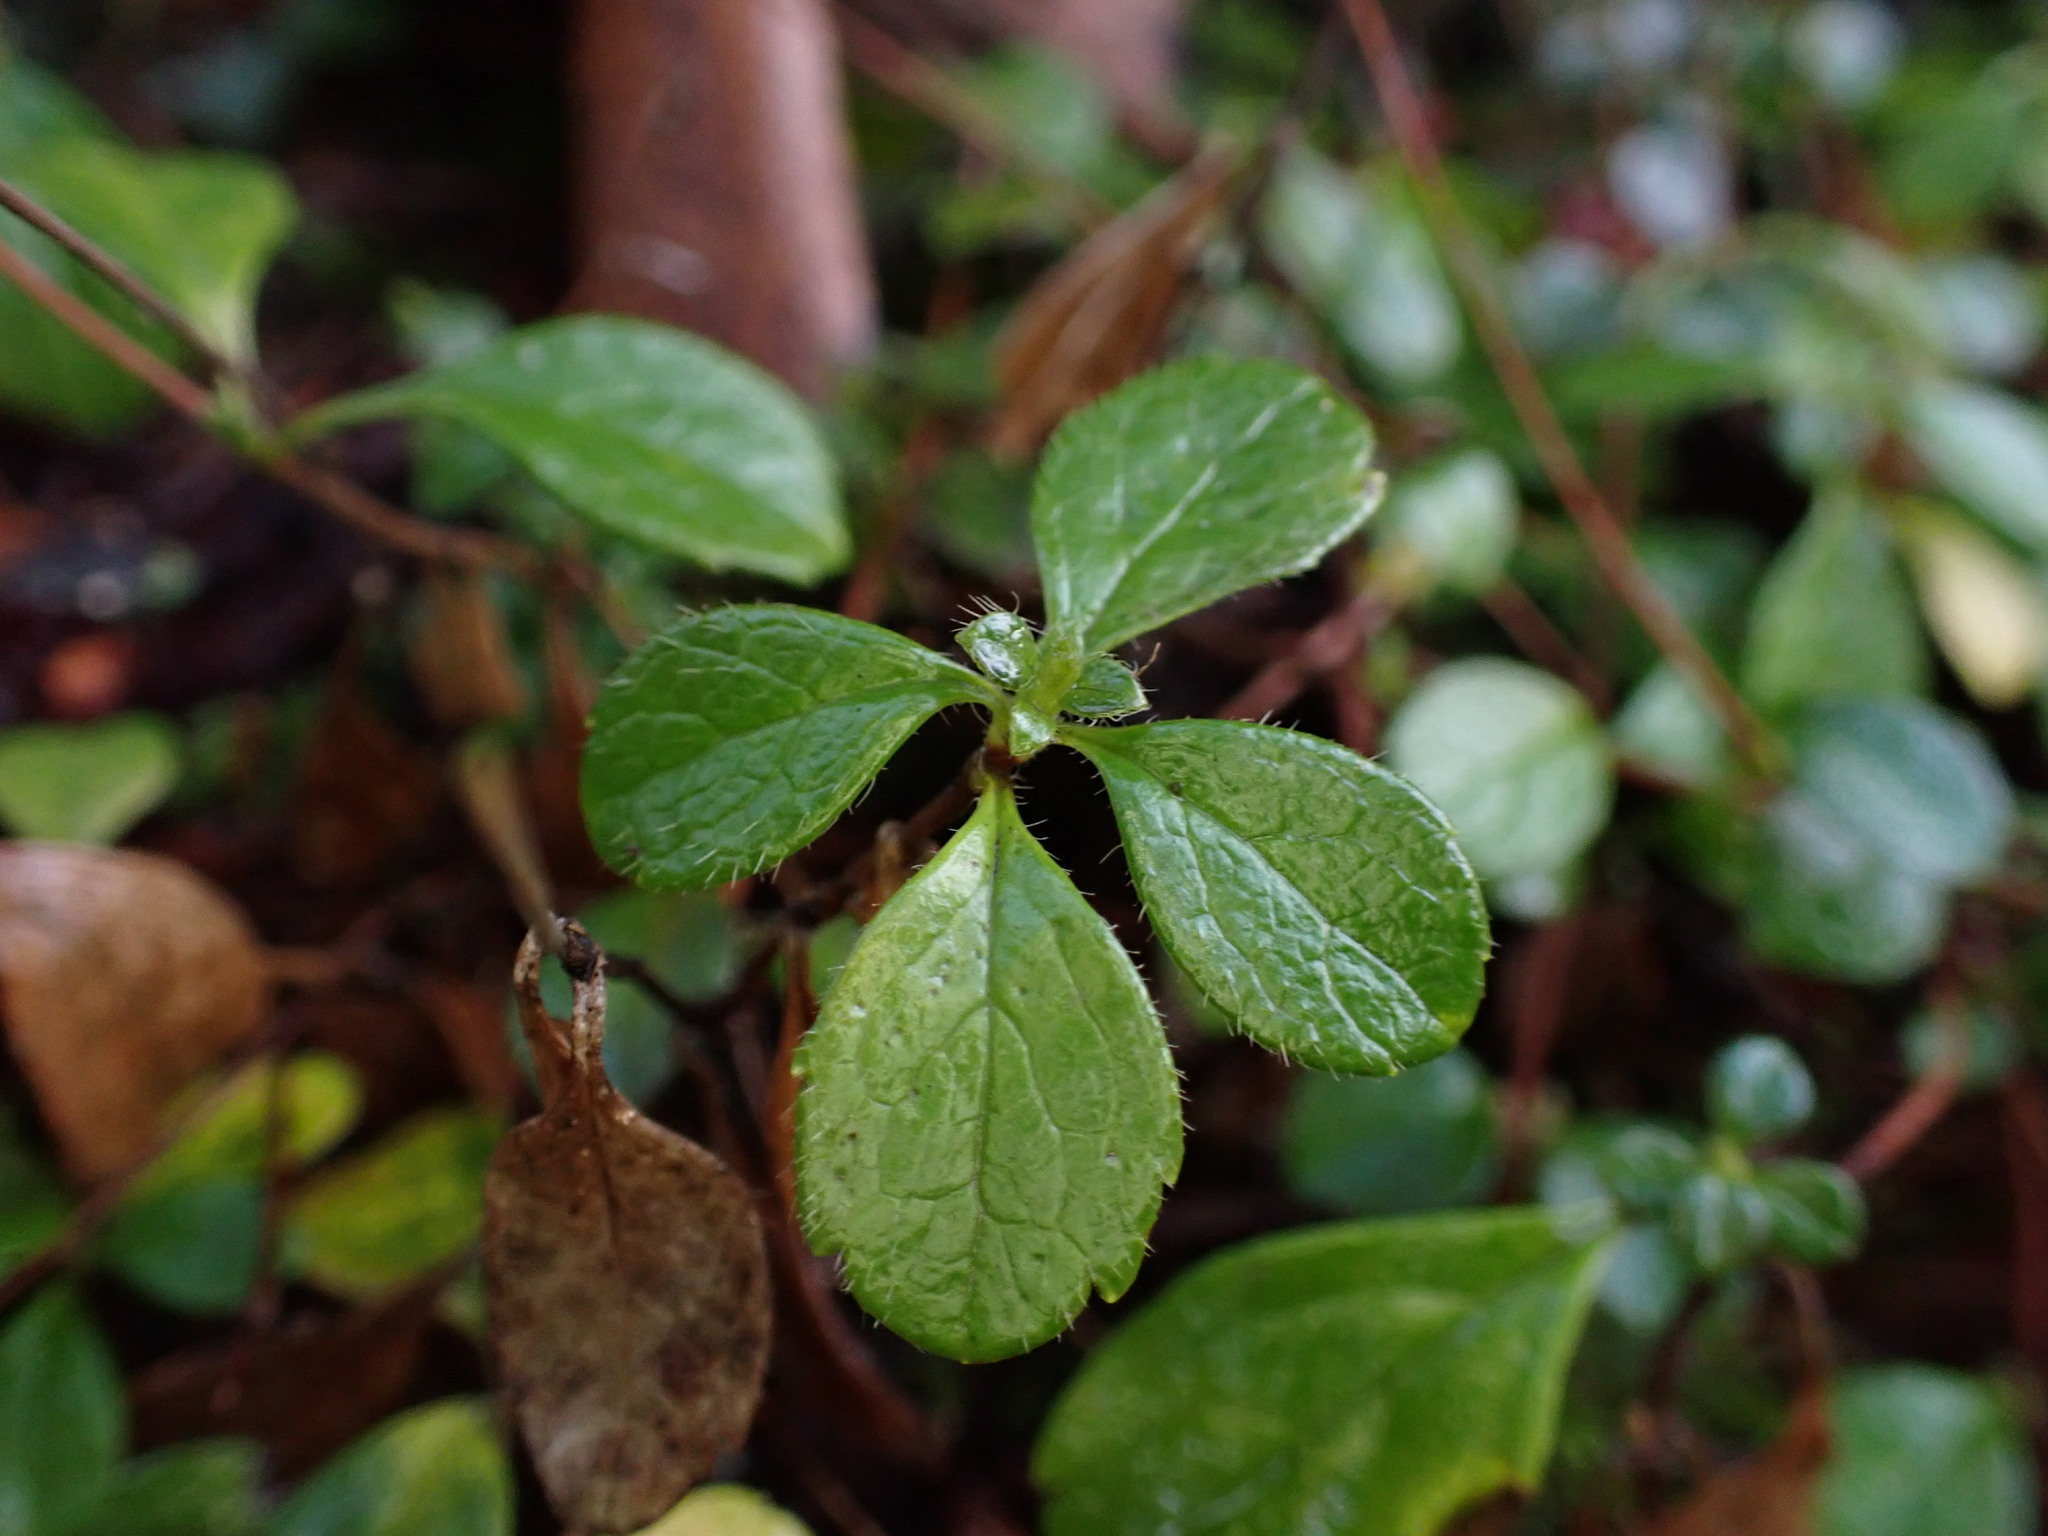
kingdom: Plantae
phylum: Tracheophyta
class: Magnoliopsida
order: Dipsacales
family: Caprifoliaceae
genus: Linnaea
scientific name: Linnaea borealis
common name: Twinflower
